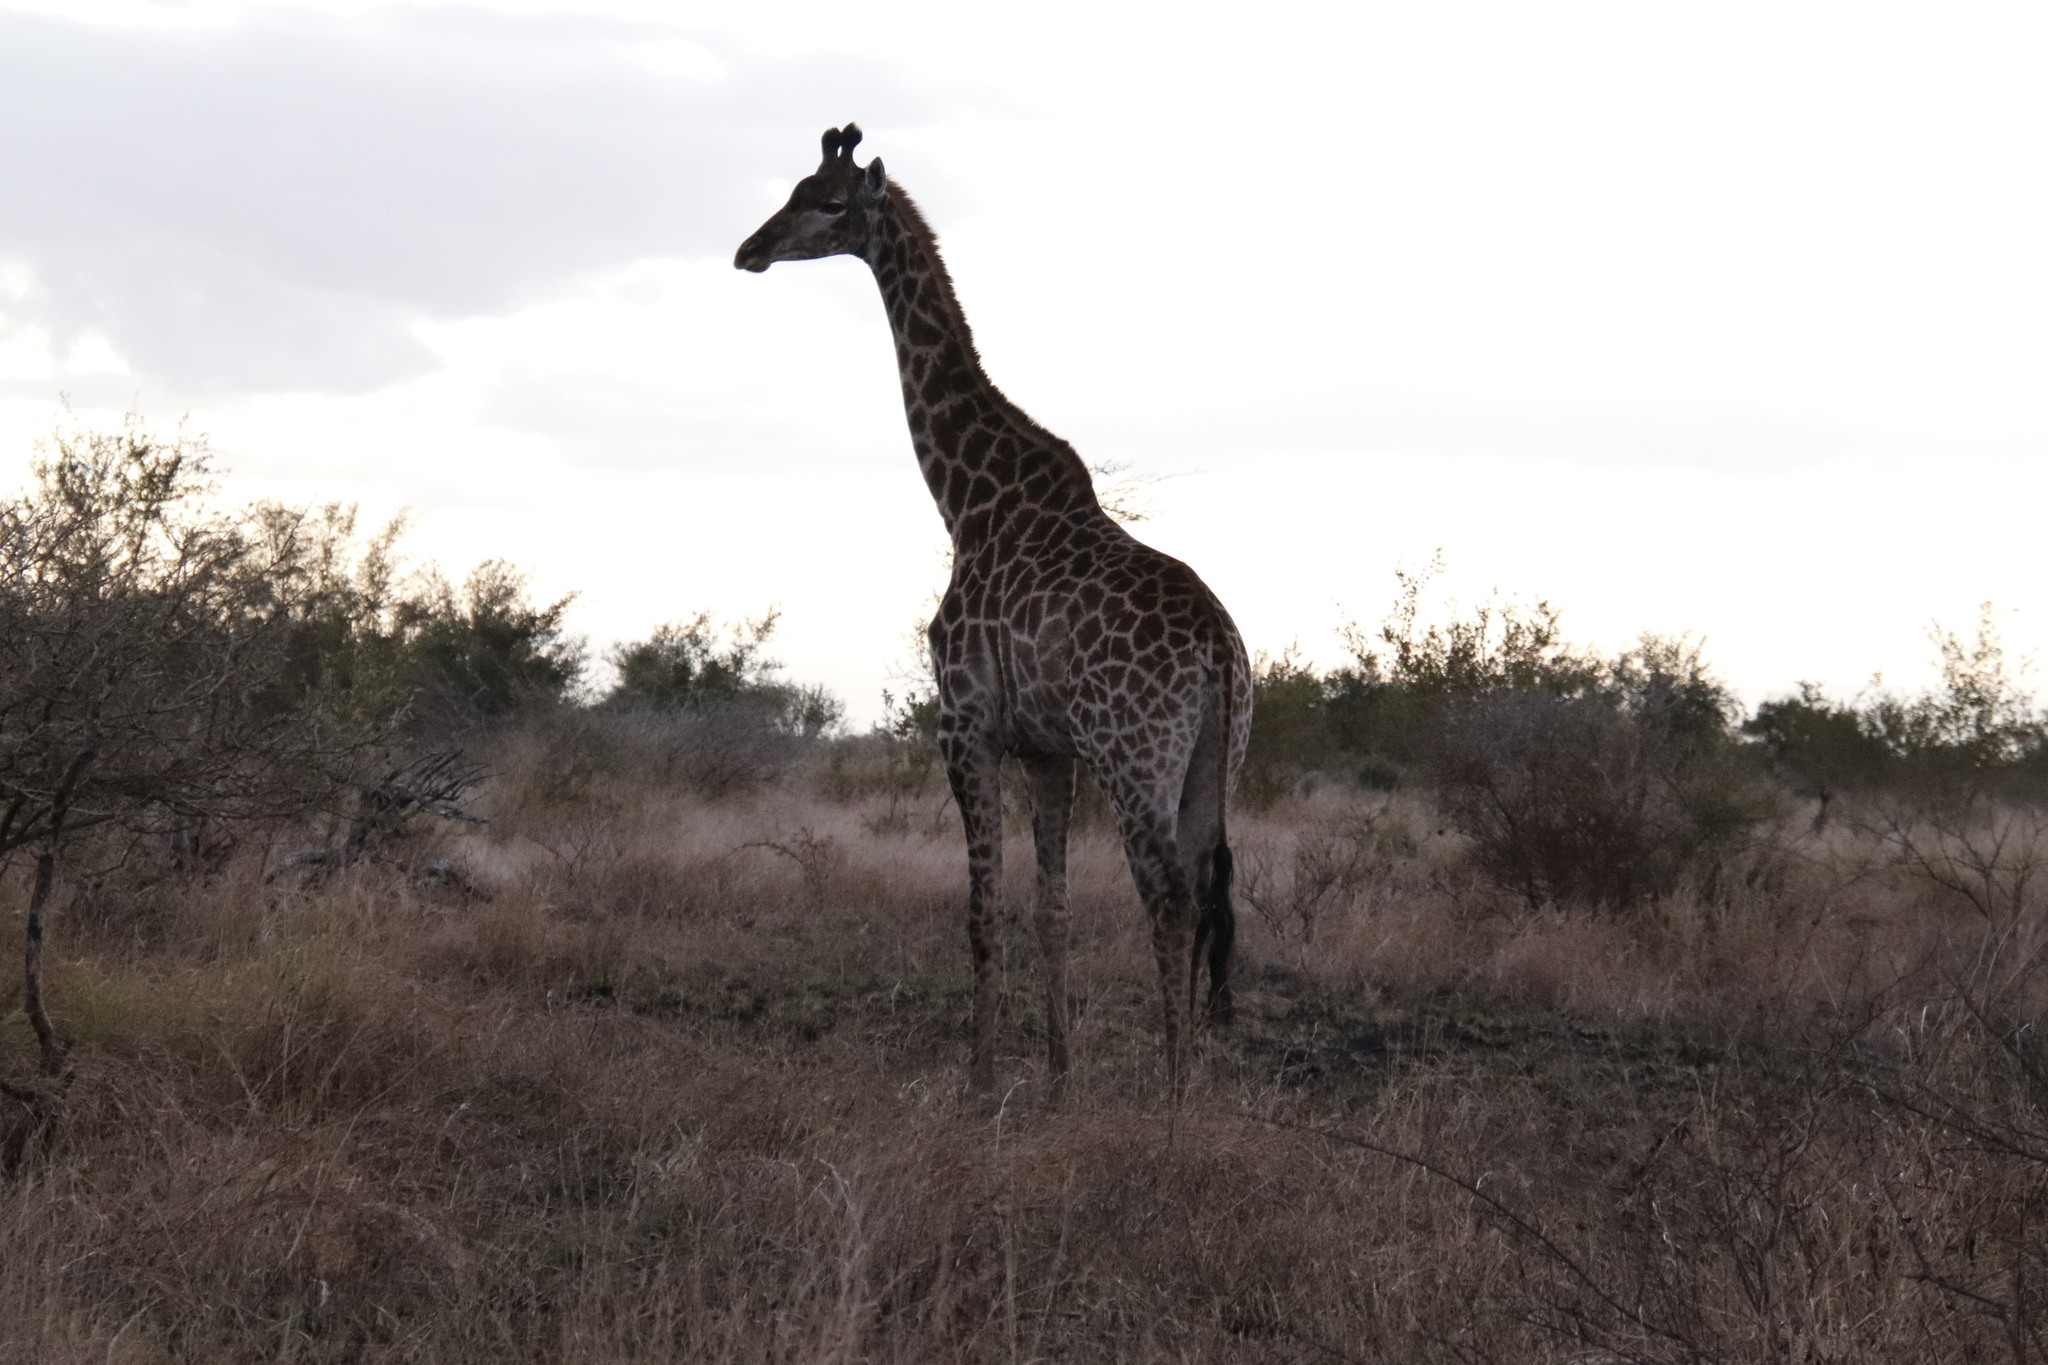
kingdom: Animalia
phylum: Chordata
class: Mammalia
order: Artiodactyla
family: Giraffidae
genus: Giraffa
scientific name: Giraffa giraffa
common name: Southern giraffe
